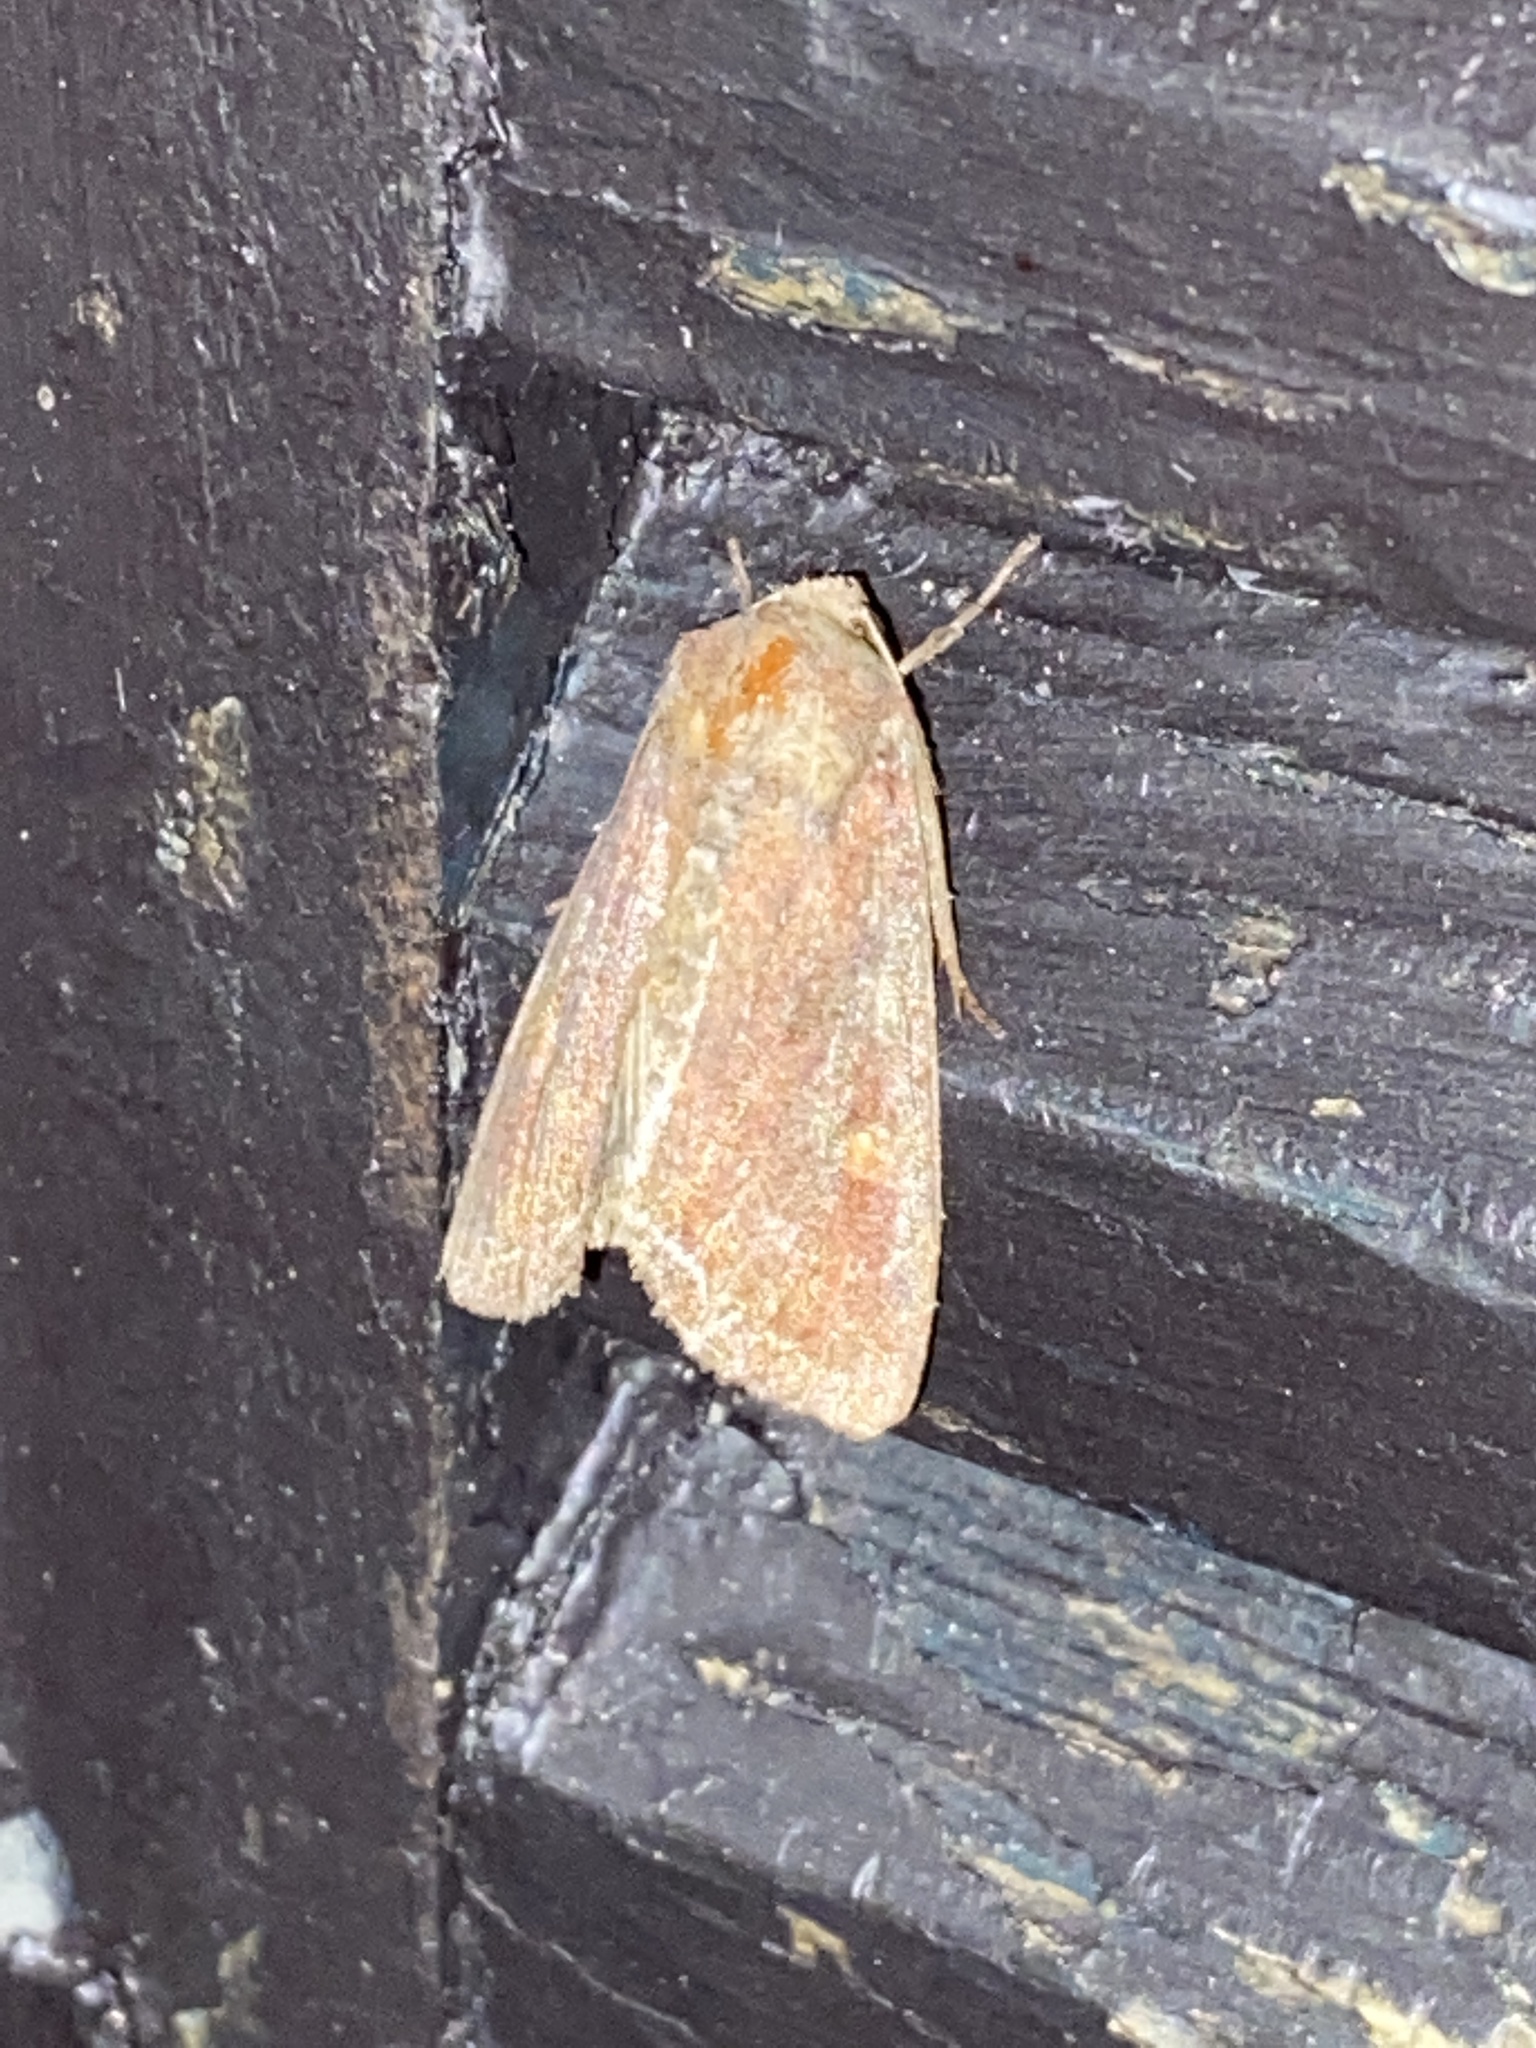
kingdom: Animalia
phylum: Arthropoda
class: Insecta
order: Lepidoptera
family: Noctuidae
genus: Lacanobia
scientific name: Lacanobia oleracea
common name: Bright-line brown-eye
